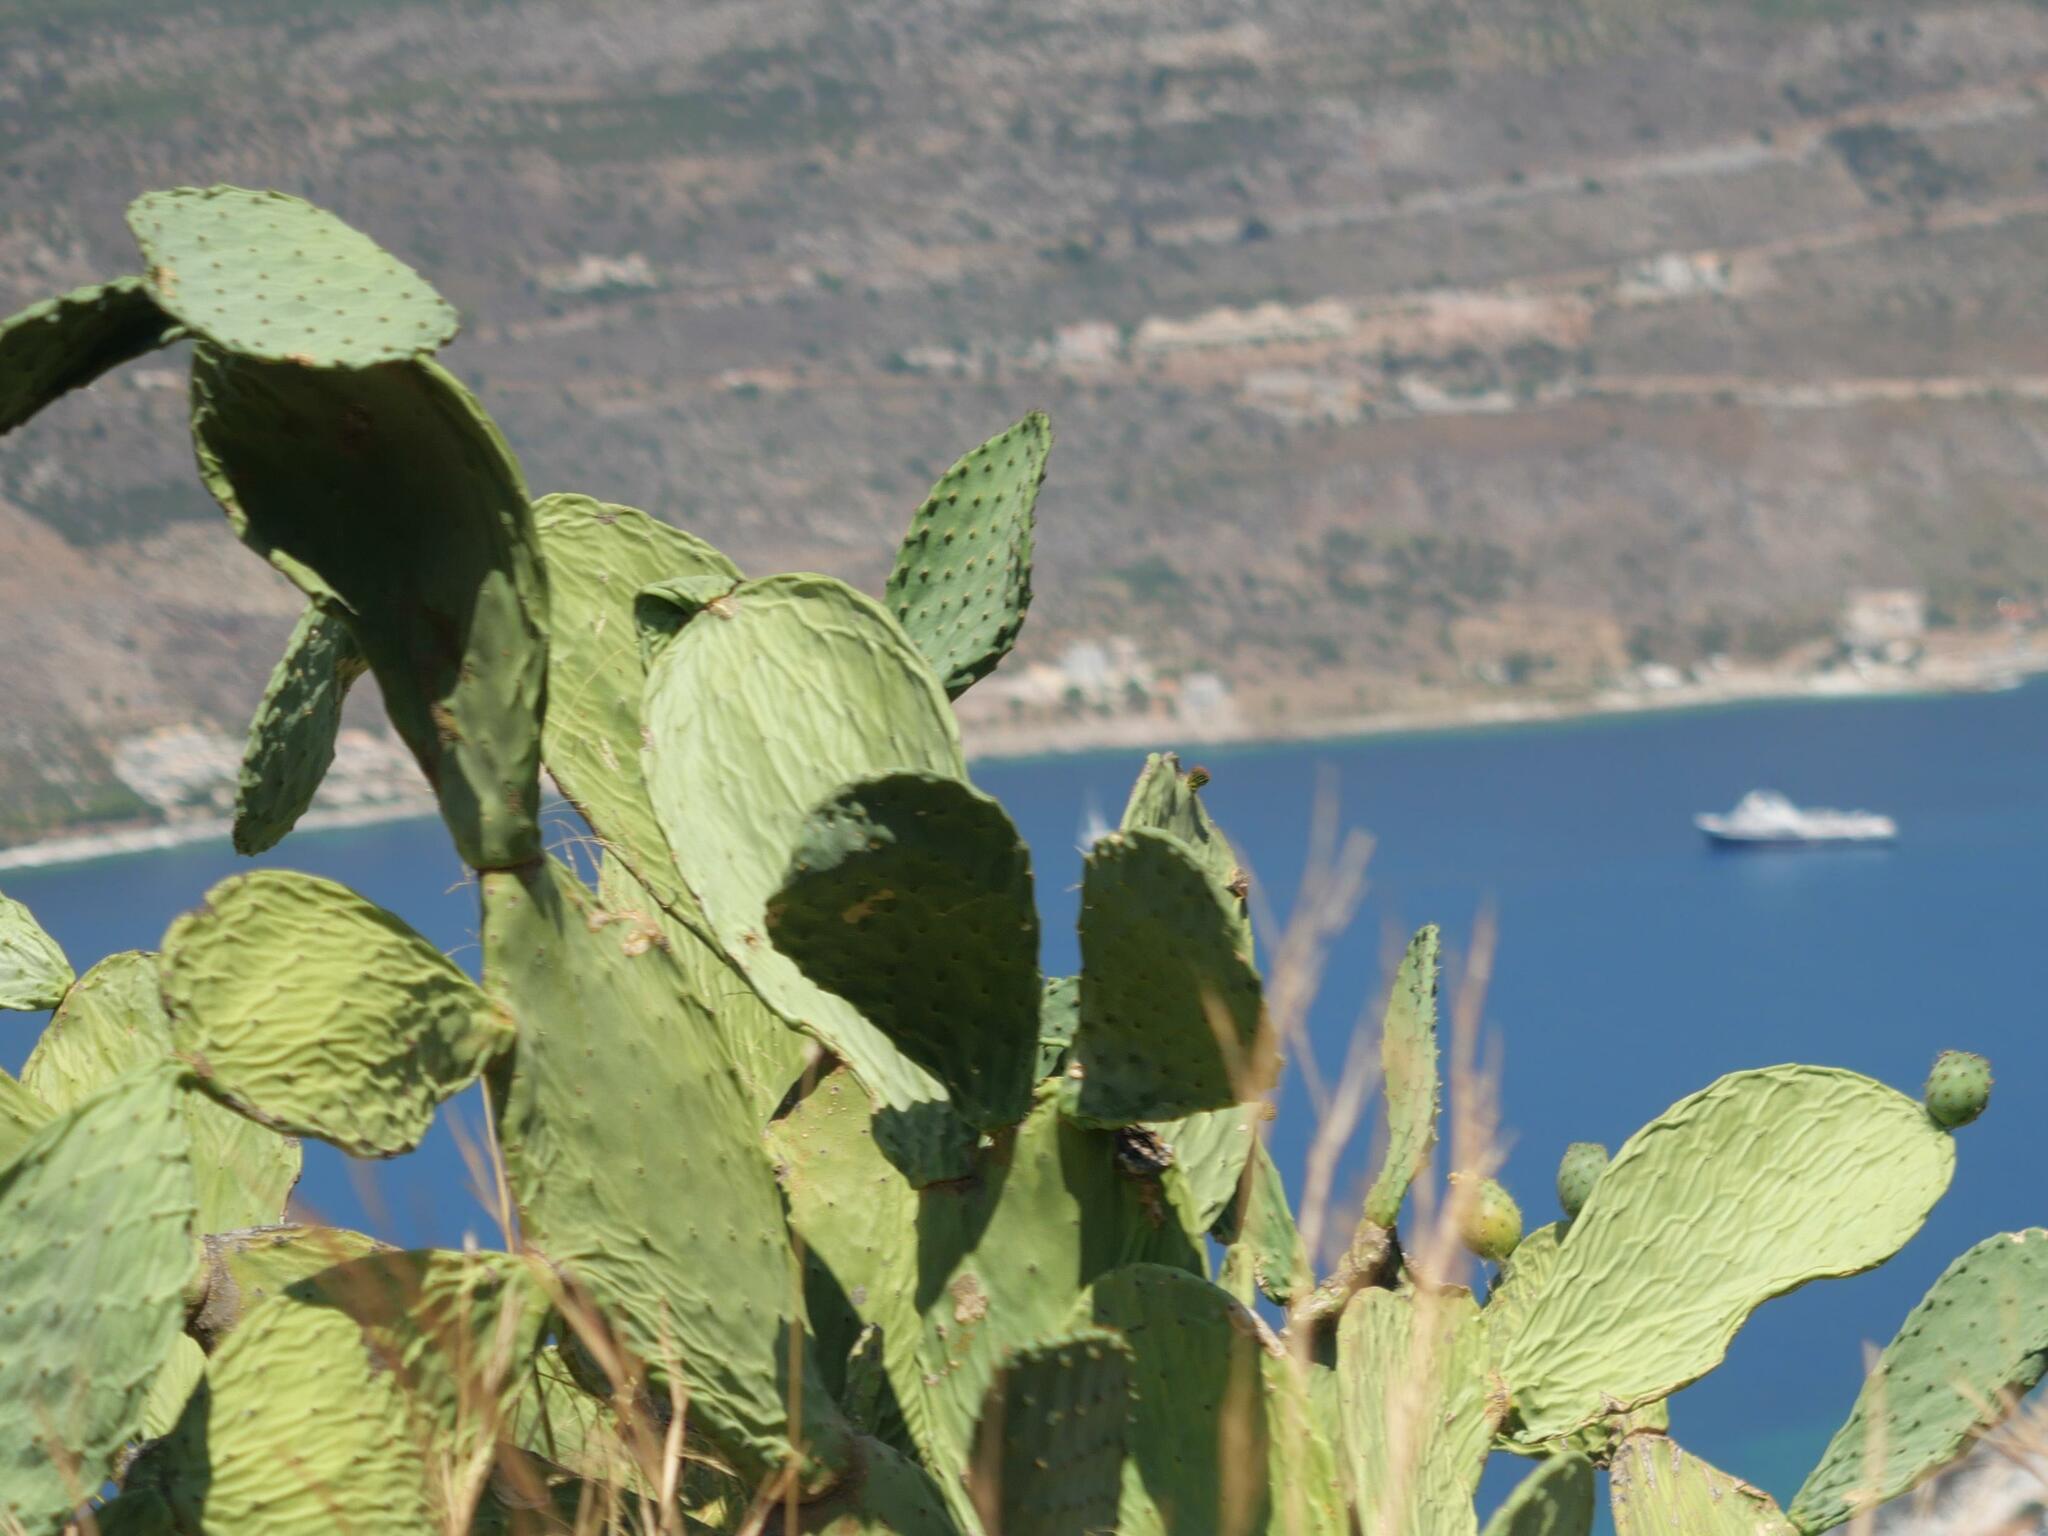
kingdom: Plantae
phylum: Tracheophyta
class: Magnoliopsida
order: Caryophyllales
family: Cactaceae
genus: Opuntia
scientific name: Opuntia ficus-indica
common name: Barbary fig
